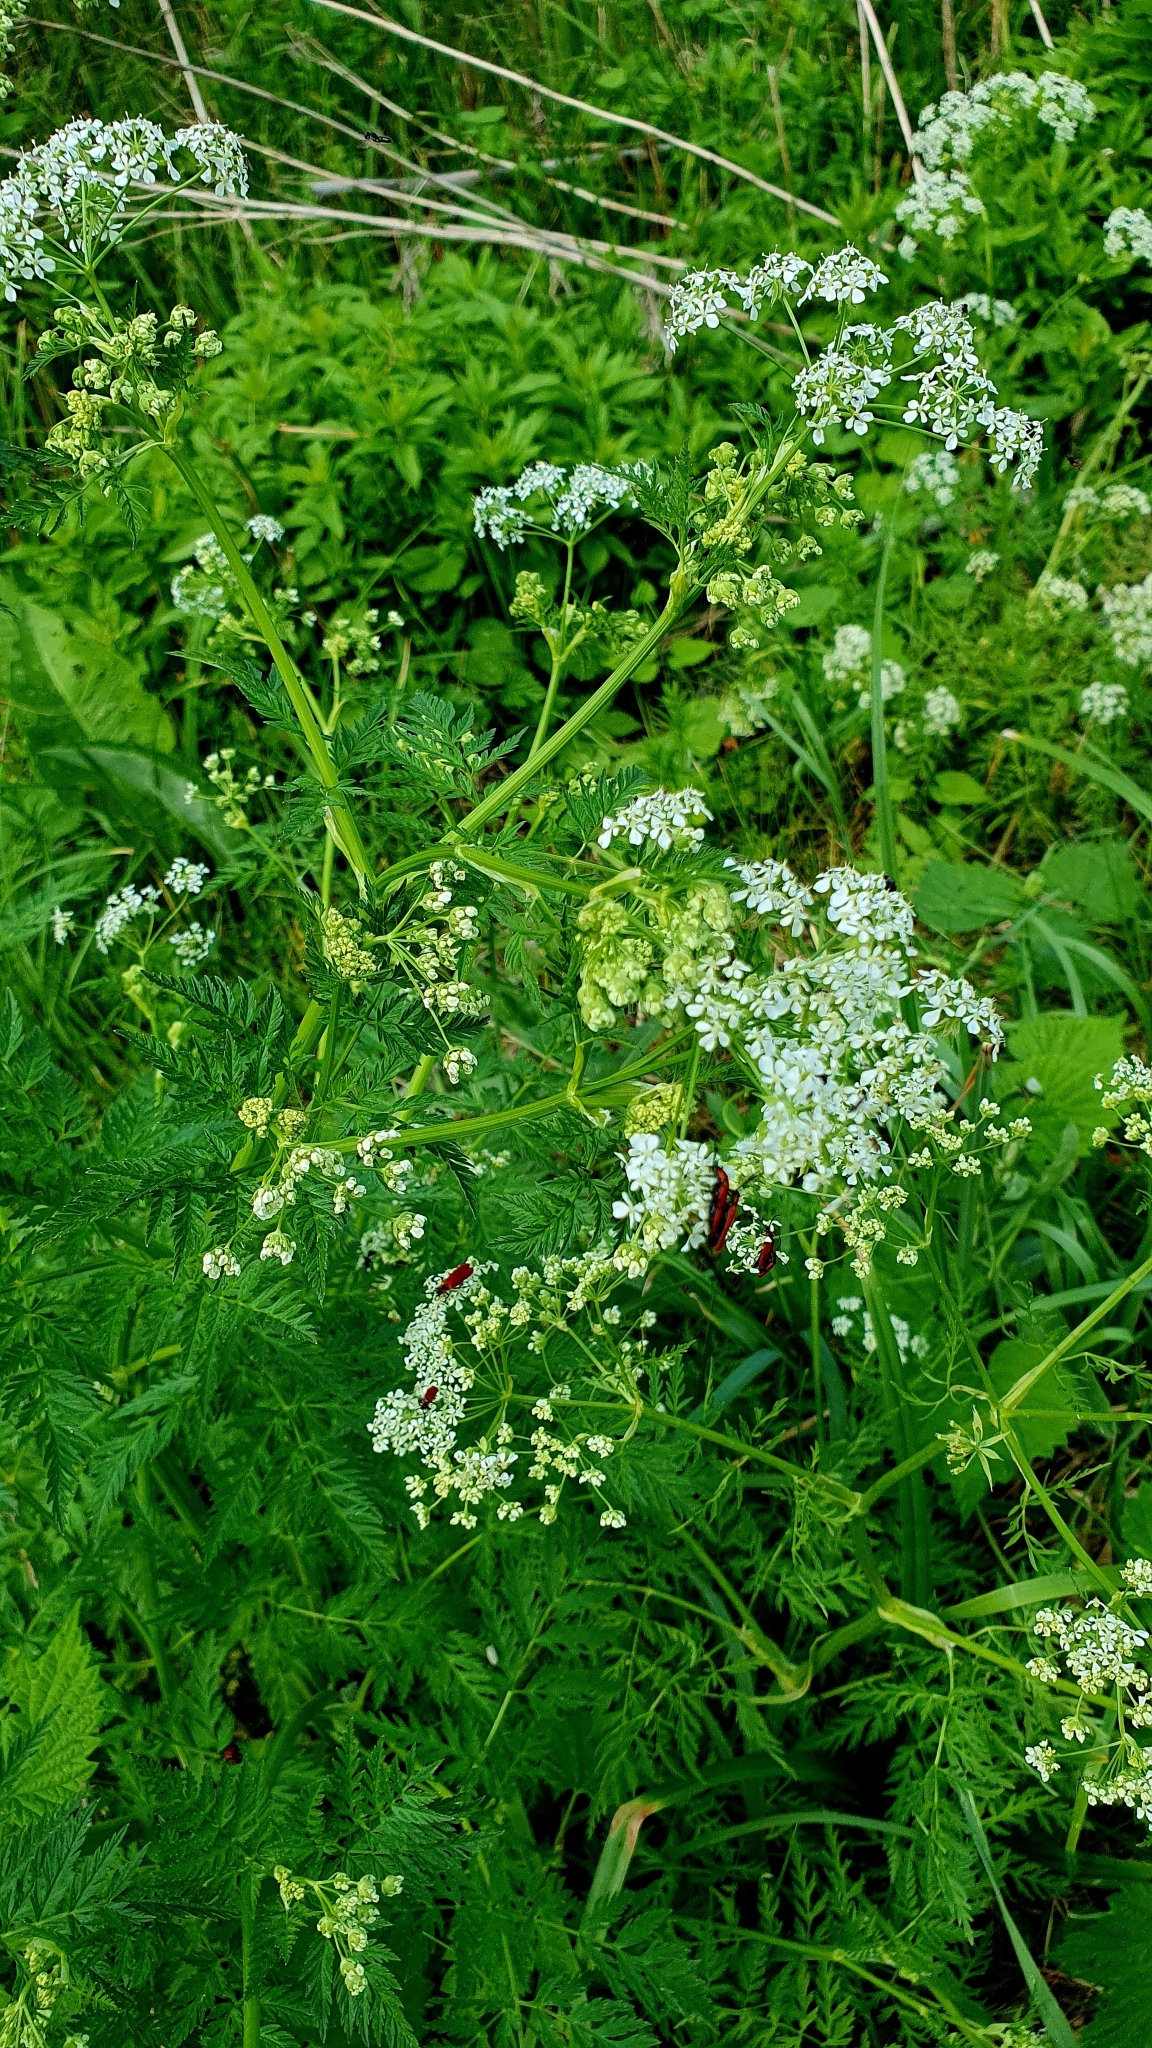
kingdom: Plantae
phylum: Tracheophyta
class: Magnoliopsida
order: Apiales
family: Apiaceae
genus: Anthriscus
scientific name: Anthriscus sylvestris
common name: Cow parsley
